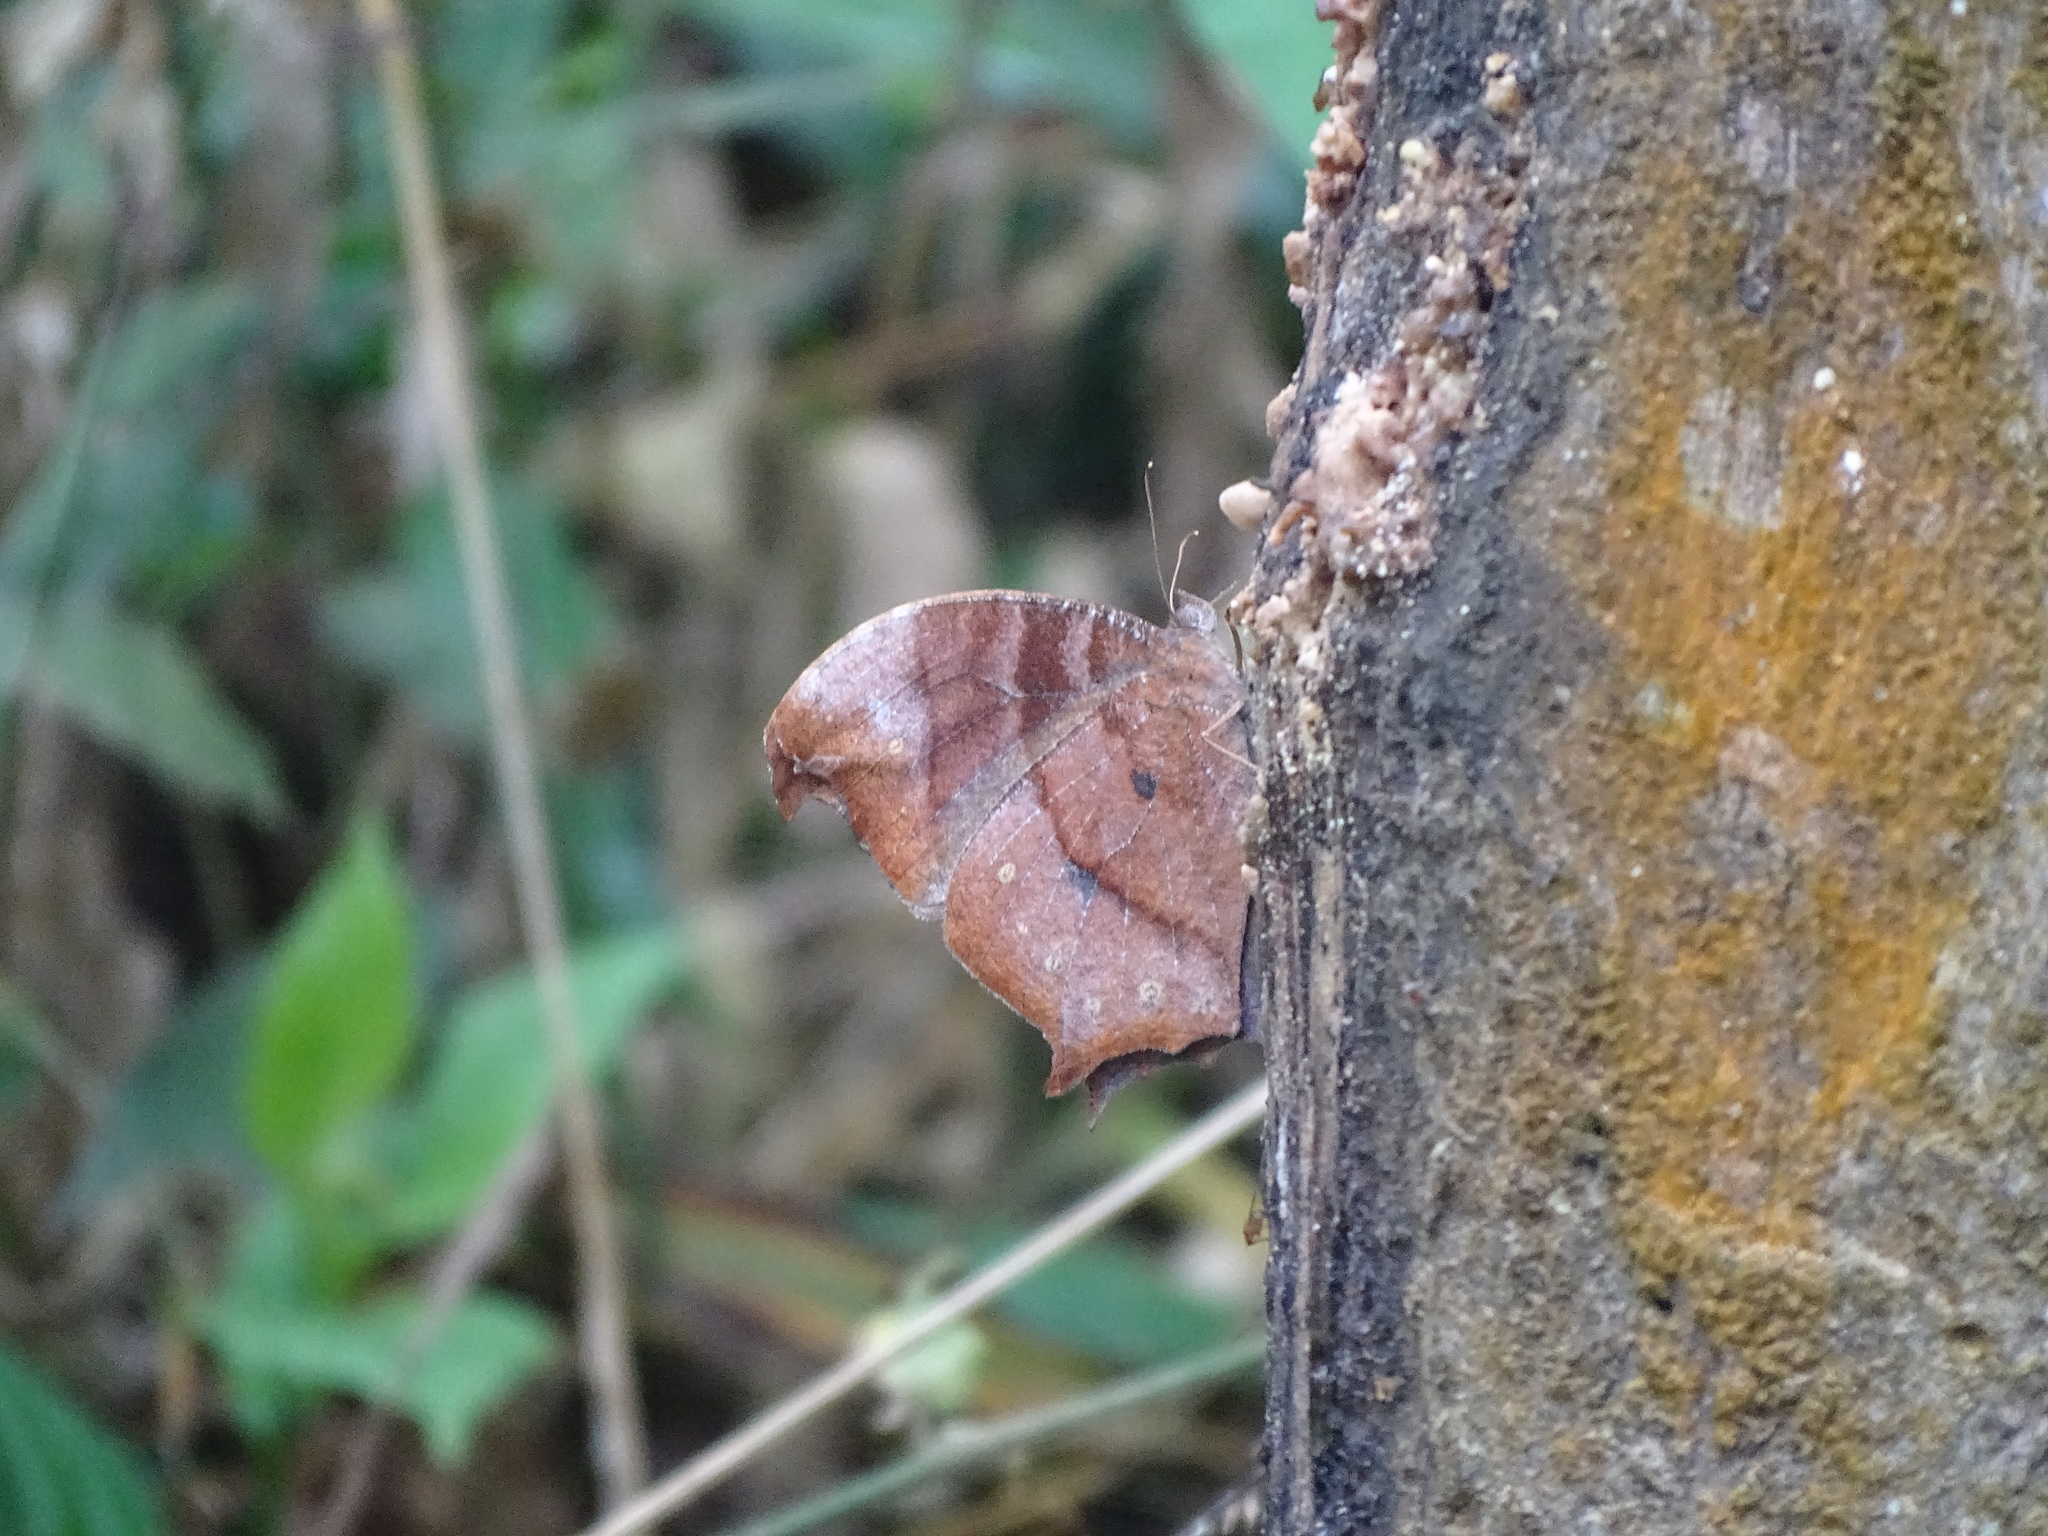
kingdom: Animalia
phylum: Arthropoda
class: Insecta
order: Lepidoptera
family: Nymphalidae
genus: Melanitis
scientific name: Melanitis phedima
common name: Dark evening brown
